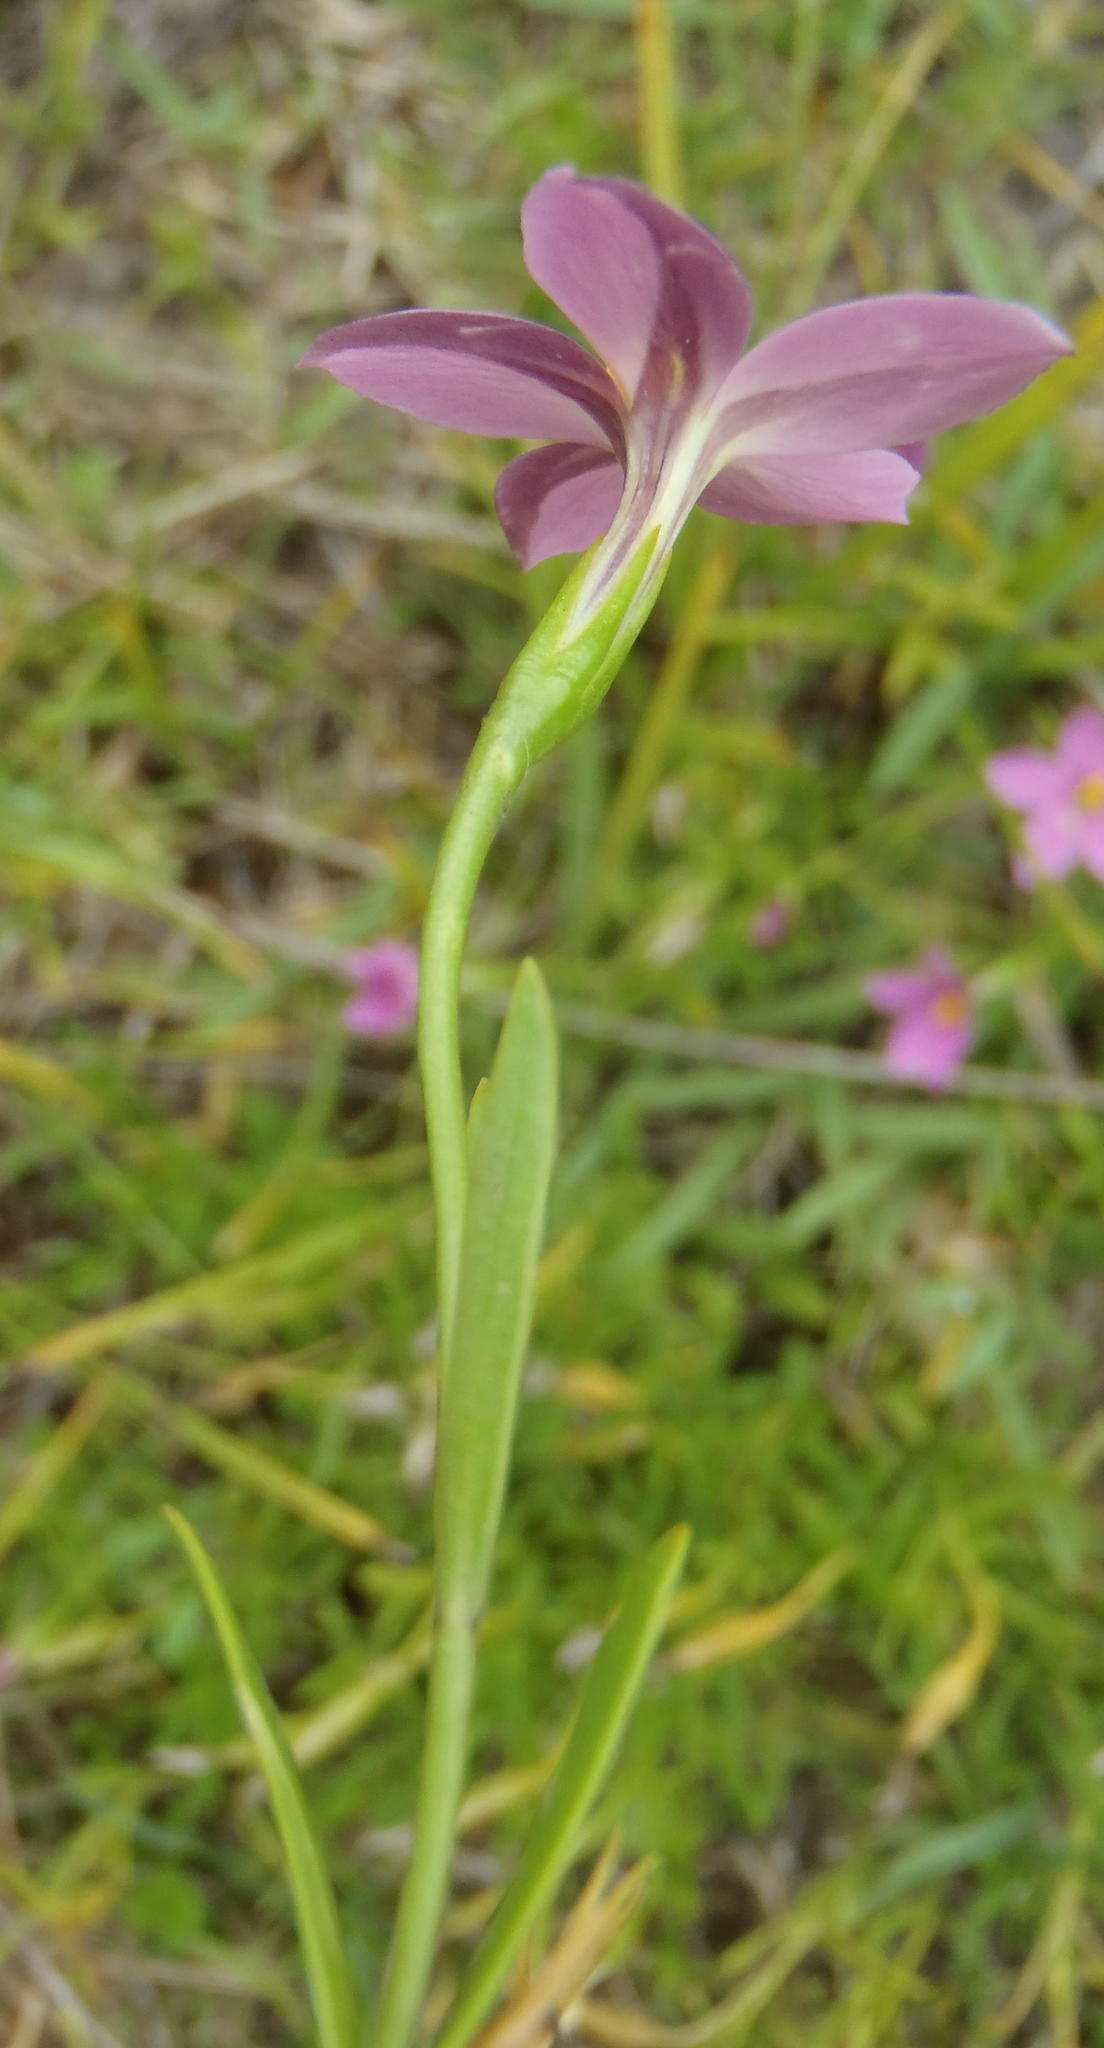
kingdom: Plantae
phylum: Tracheophyta
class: Magnoliopsida
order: Gentianales
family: Gentianaceae
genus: Chironia
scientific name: Chironia tetragona
